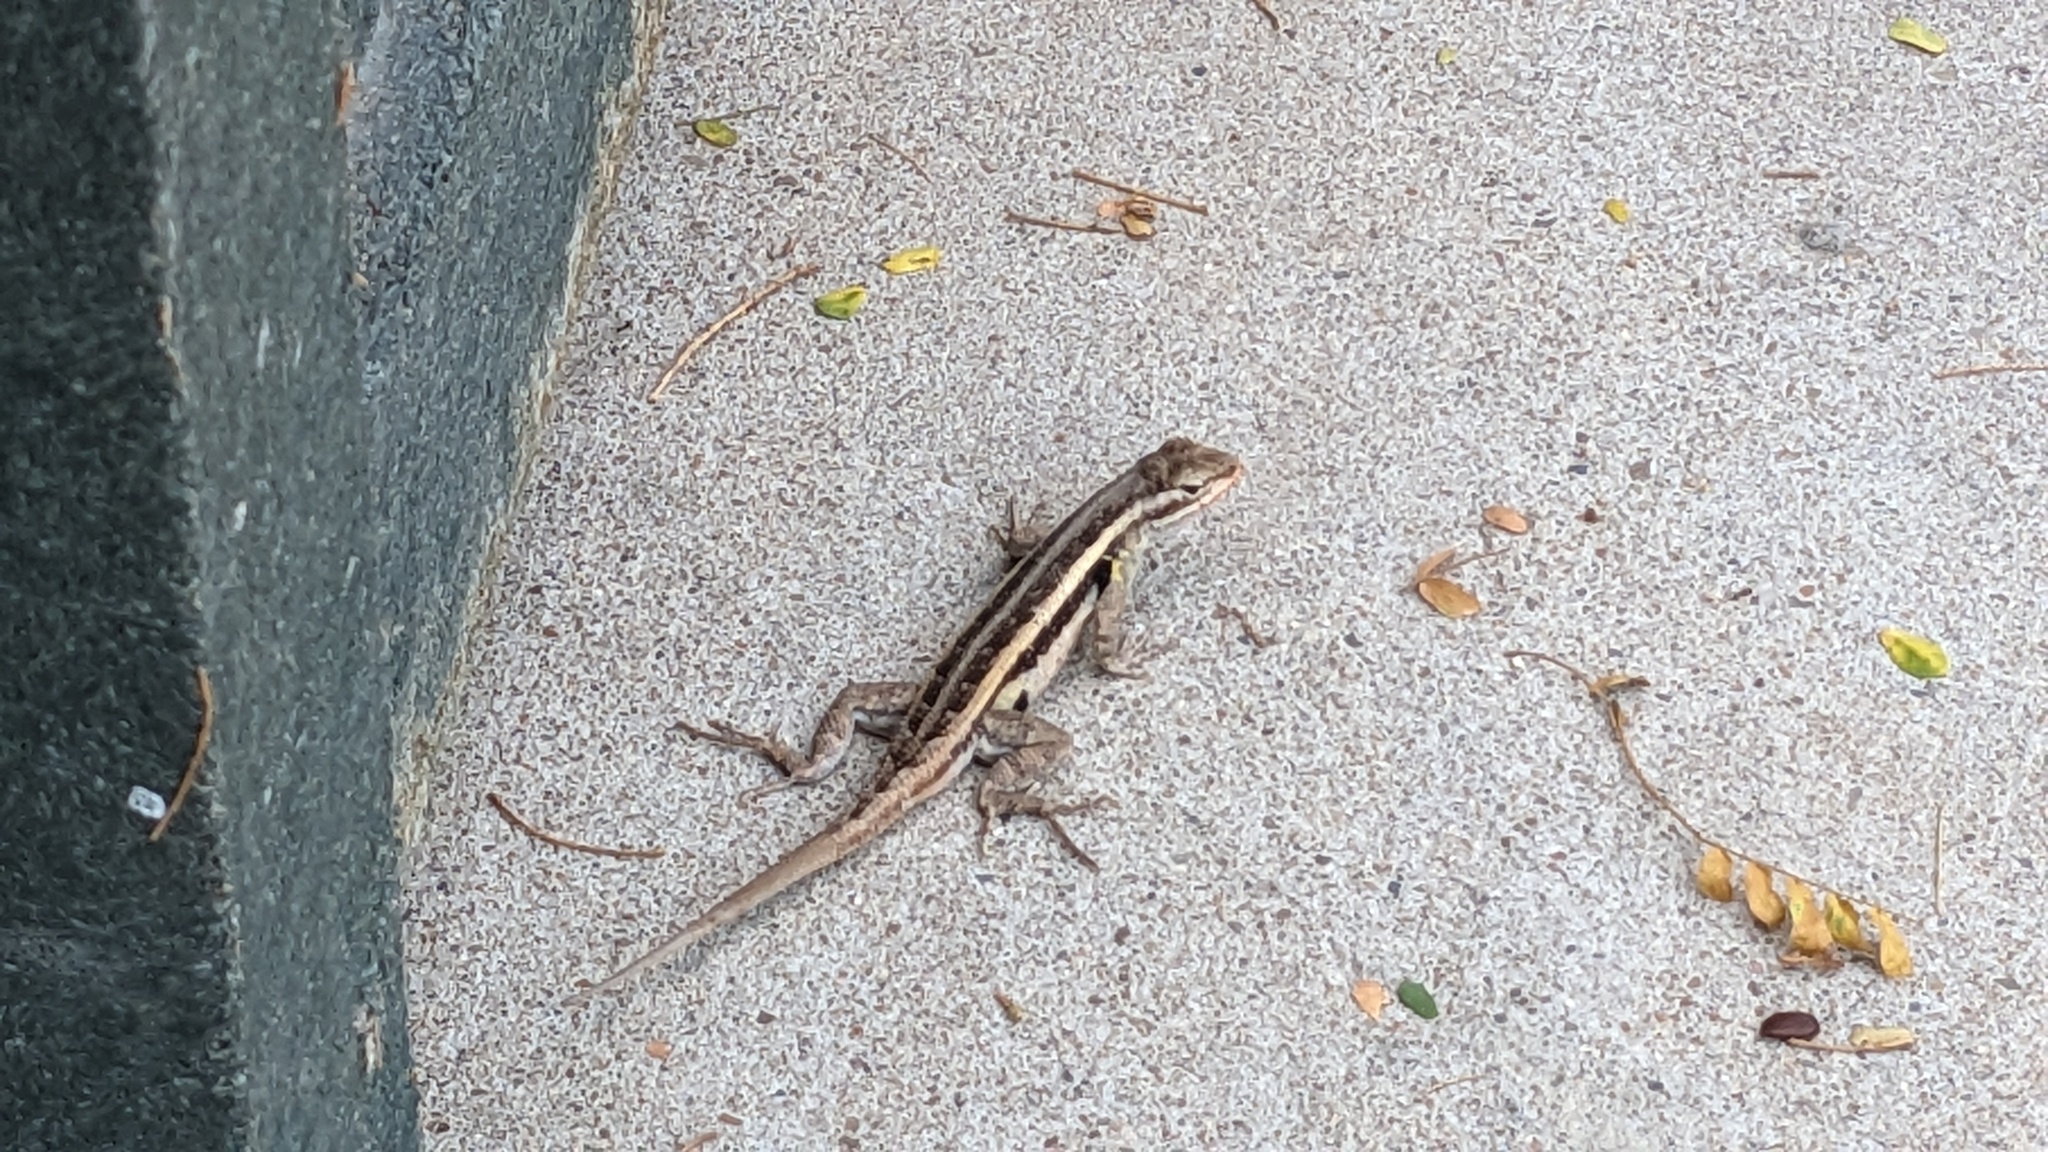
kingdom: Animalia
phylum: Chordata
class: Squamata
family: Phrynosomatidae
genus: Sceloporus
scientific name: Sceloporus variabilis
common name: Rosebelly lizard
